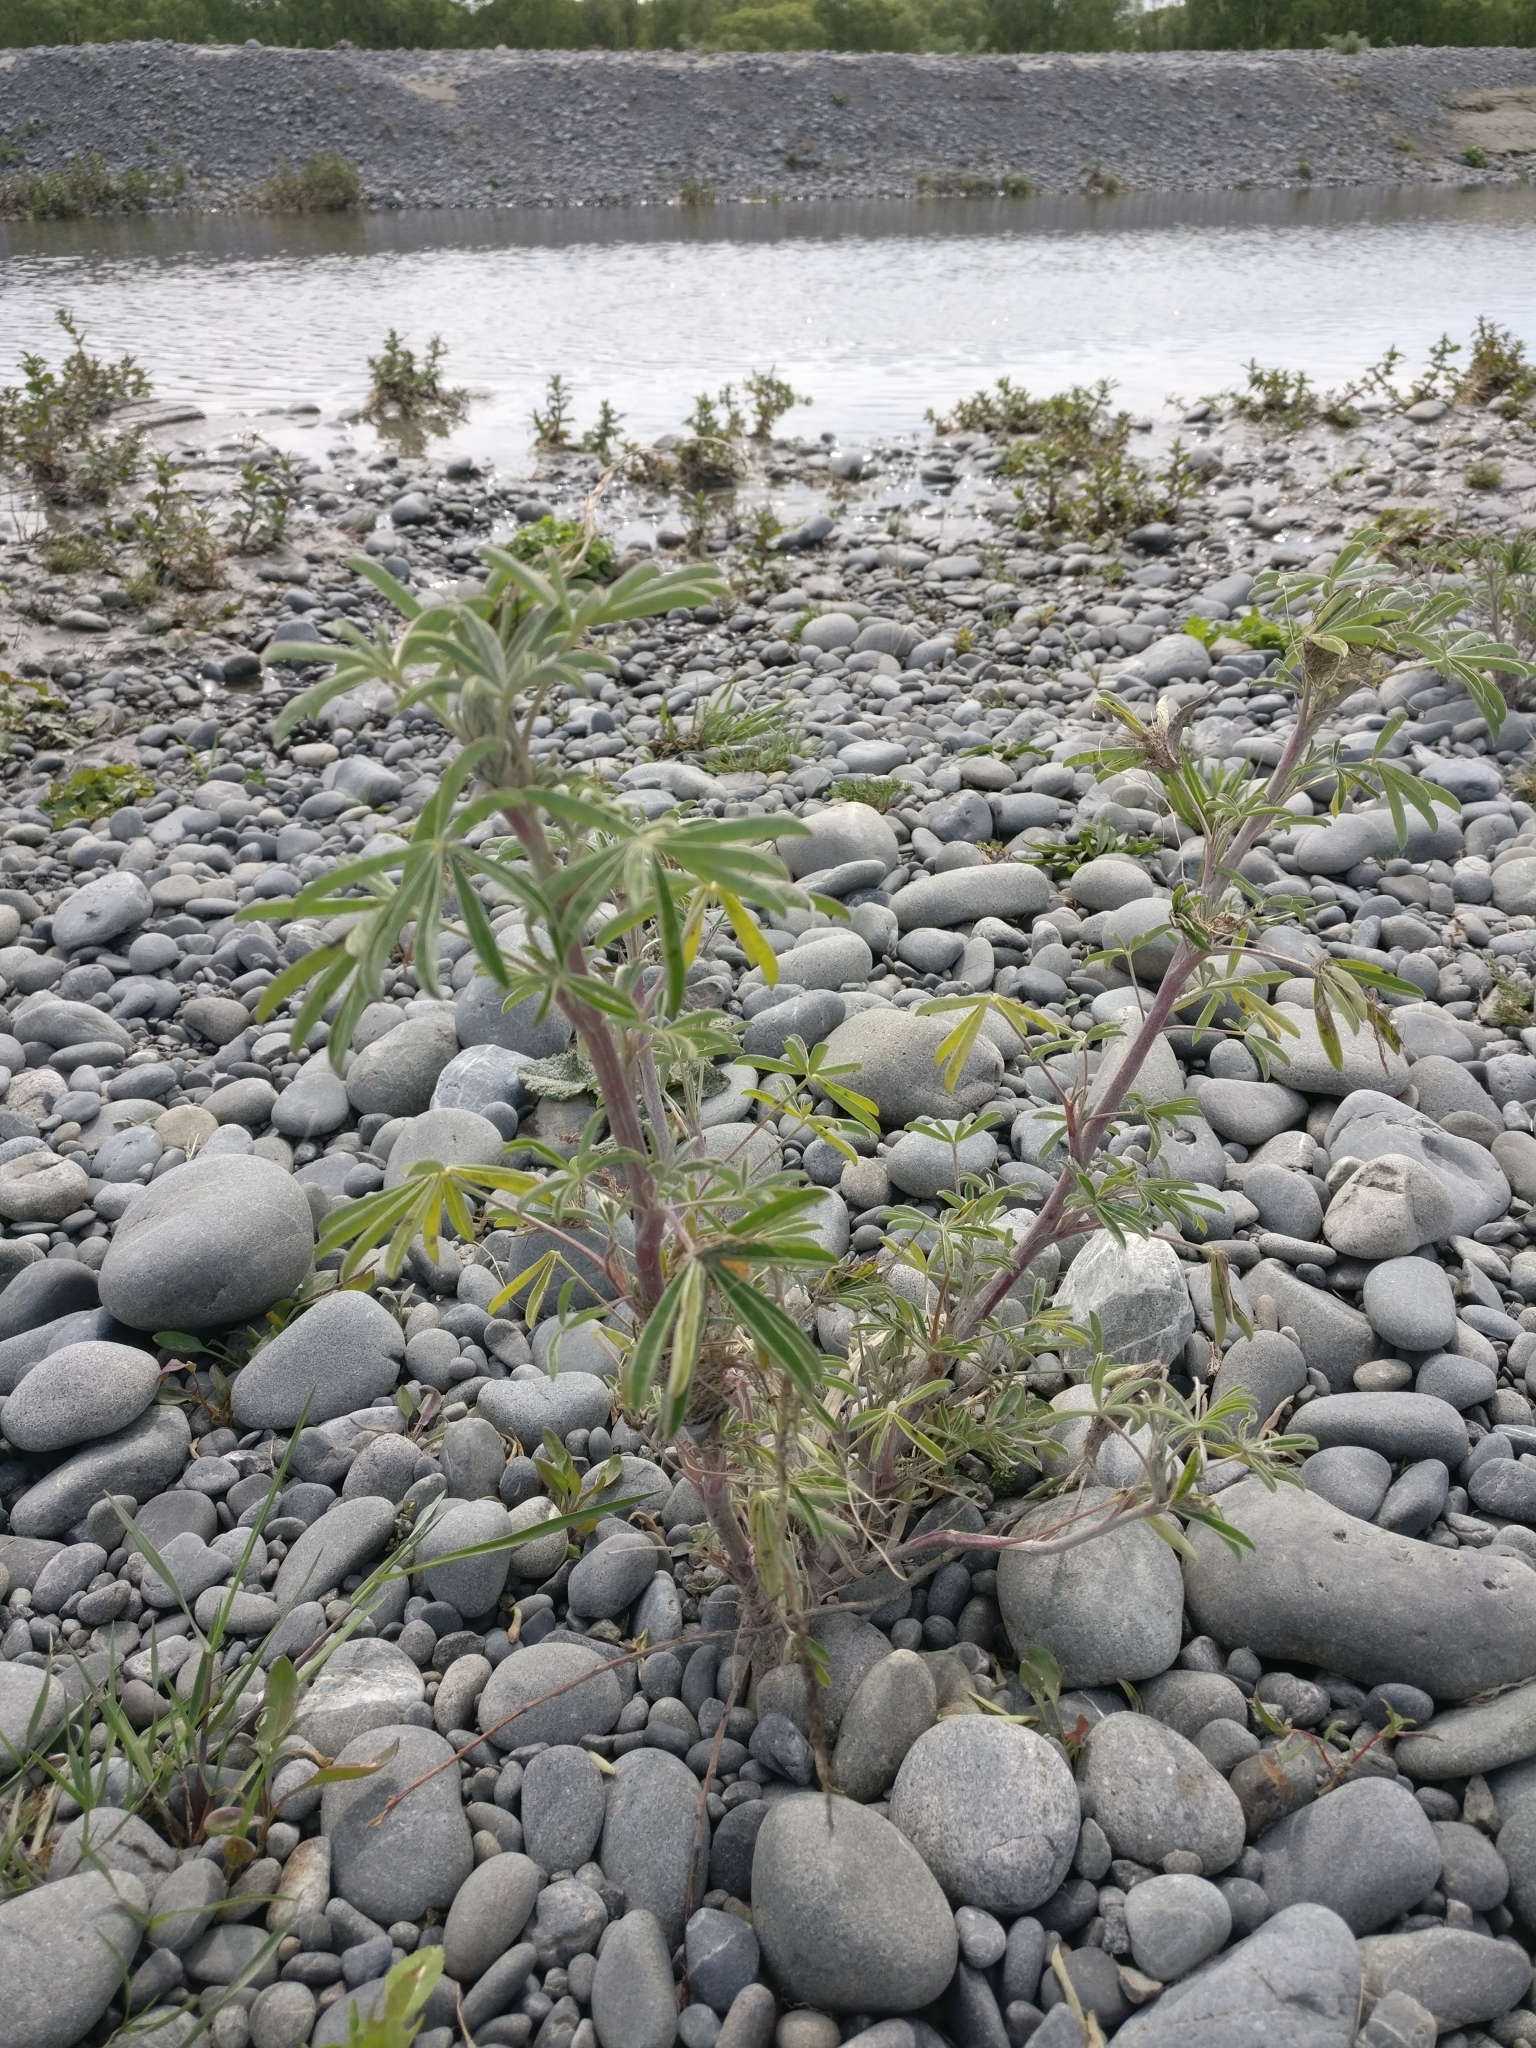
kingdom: Plantae
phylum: Tracheophyta
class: Magnoliopsida
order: Fabales
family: Fabaceae
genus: Lupinus
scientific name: Lupinus arboreus
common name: Yellow bush lupine
